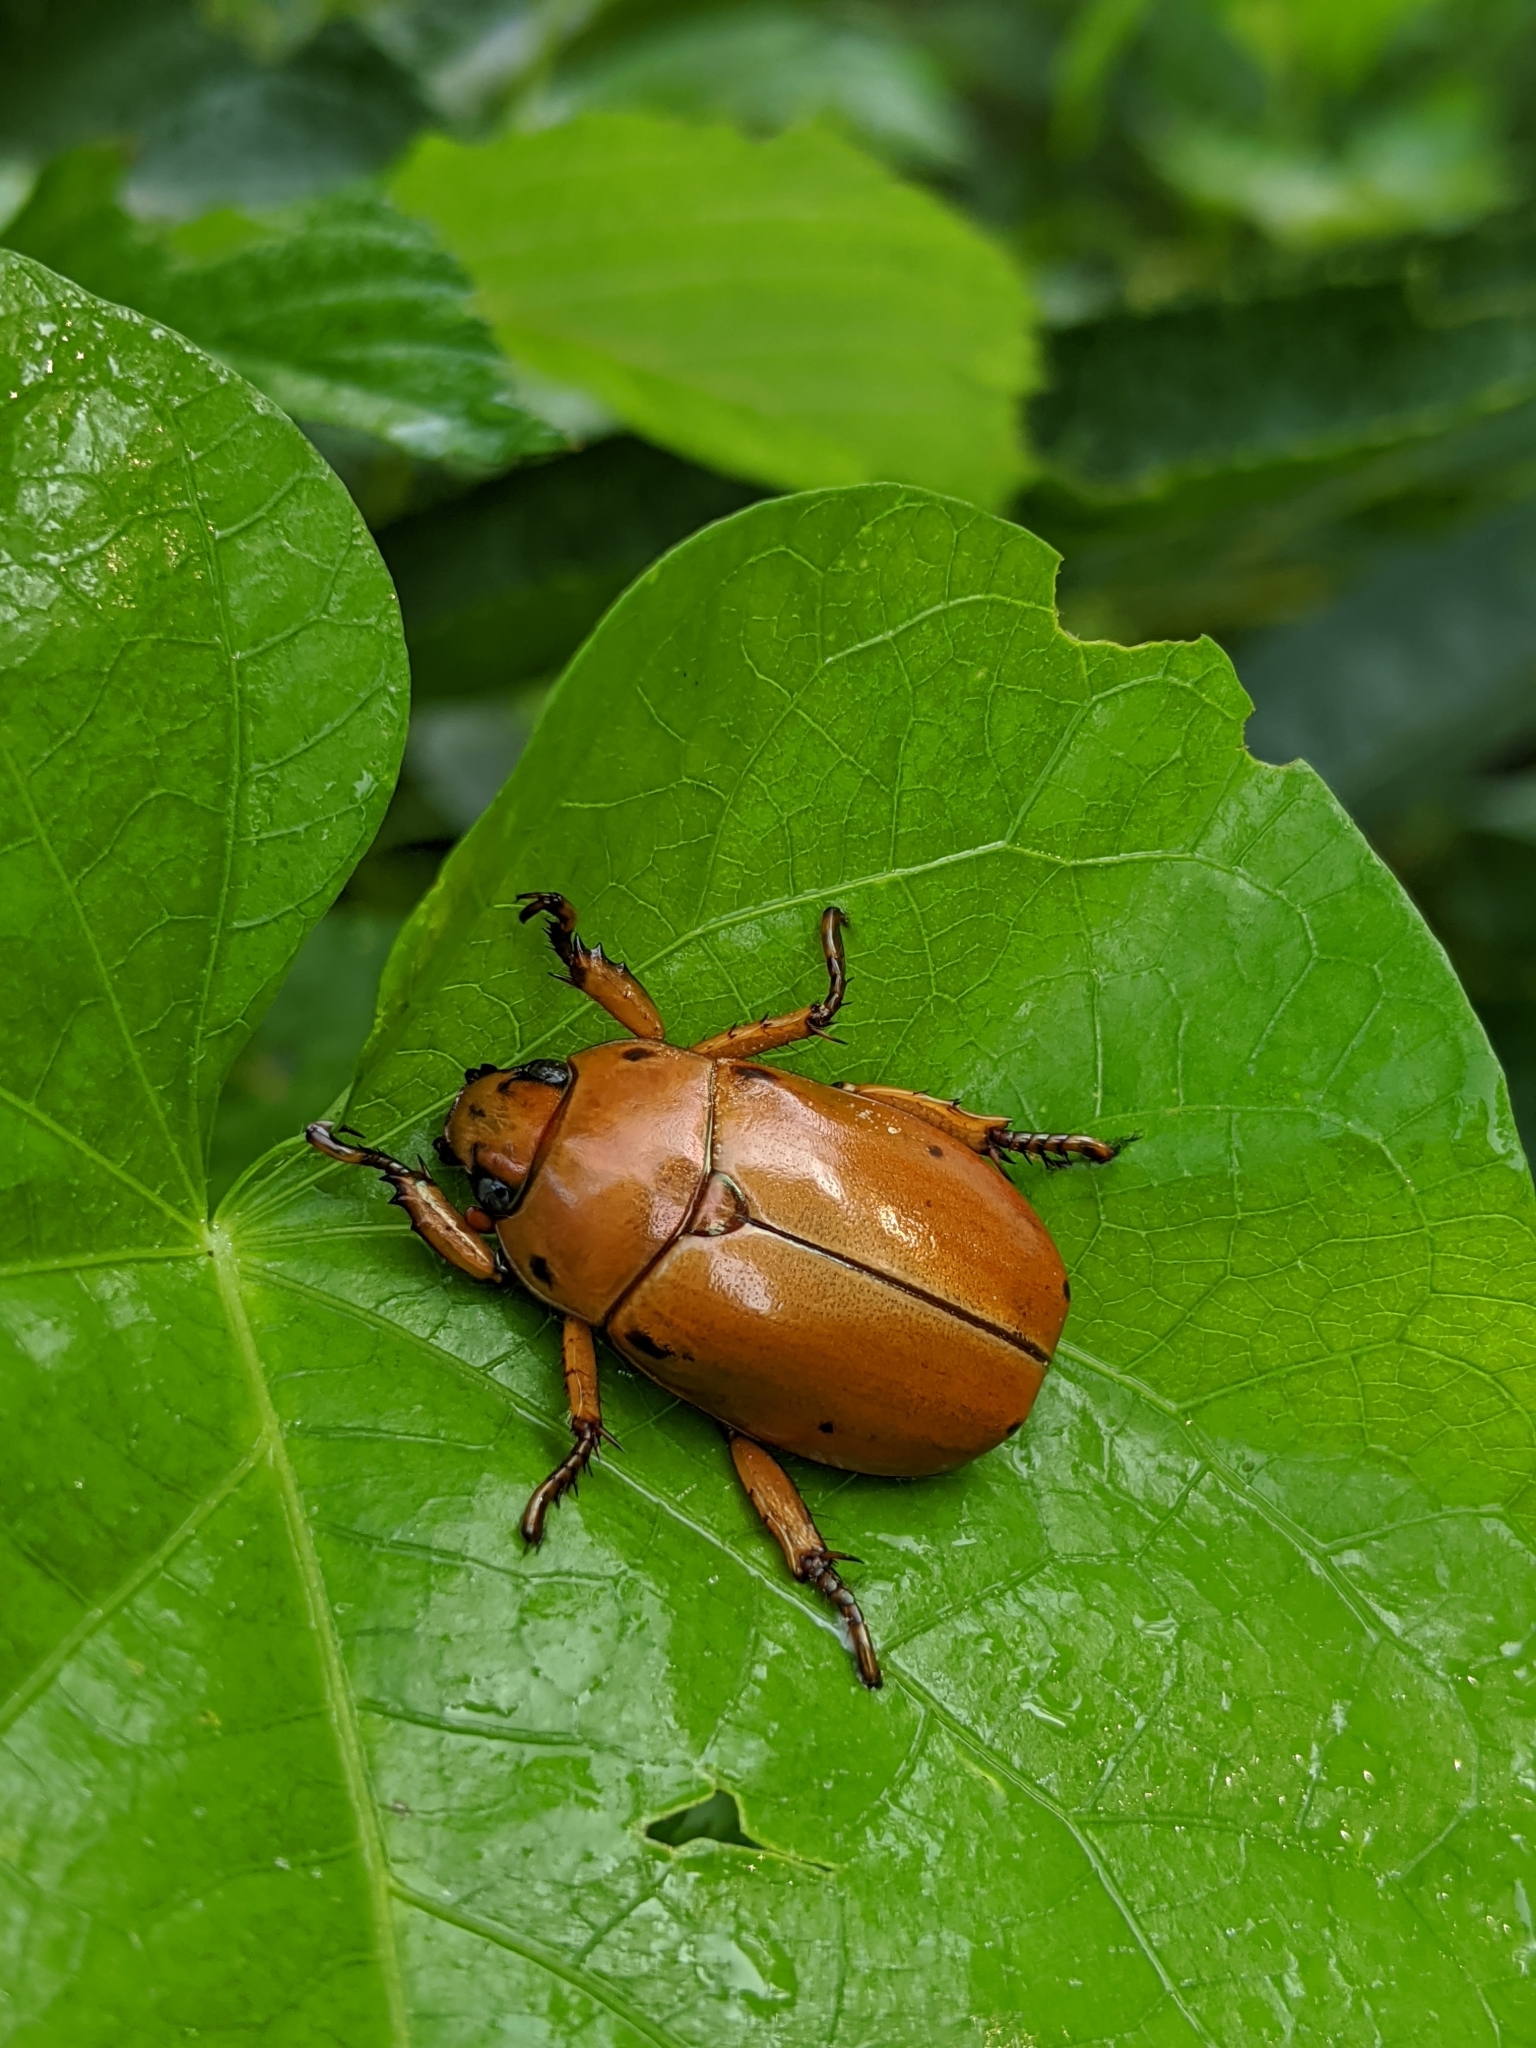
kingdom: Animalia
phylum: Arthropoda
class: Insecta
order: Coleoptera
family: Scarabaeidae
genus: Pelidnota
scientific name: Pelidnota punctata
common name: Grapevine beetle
